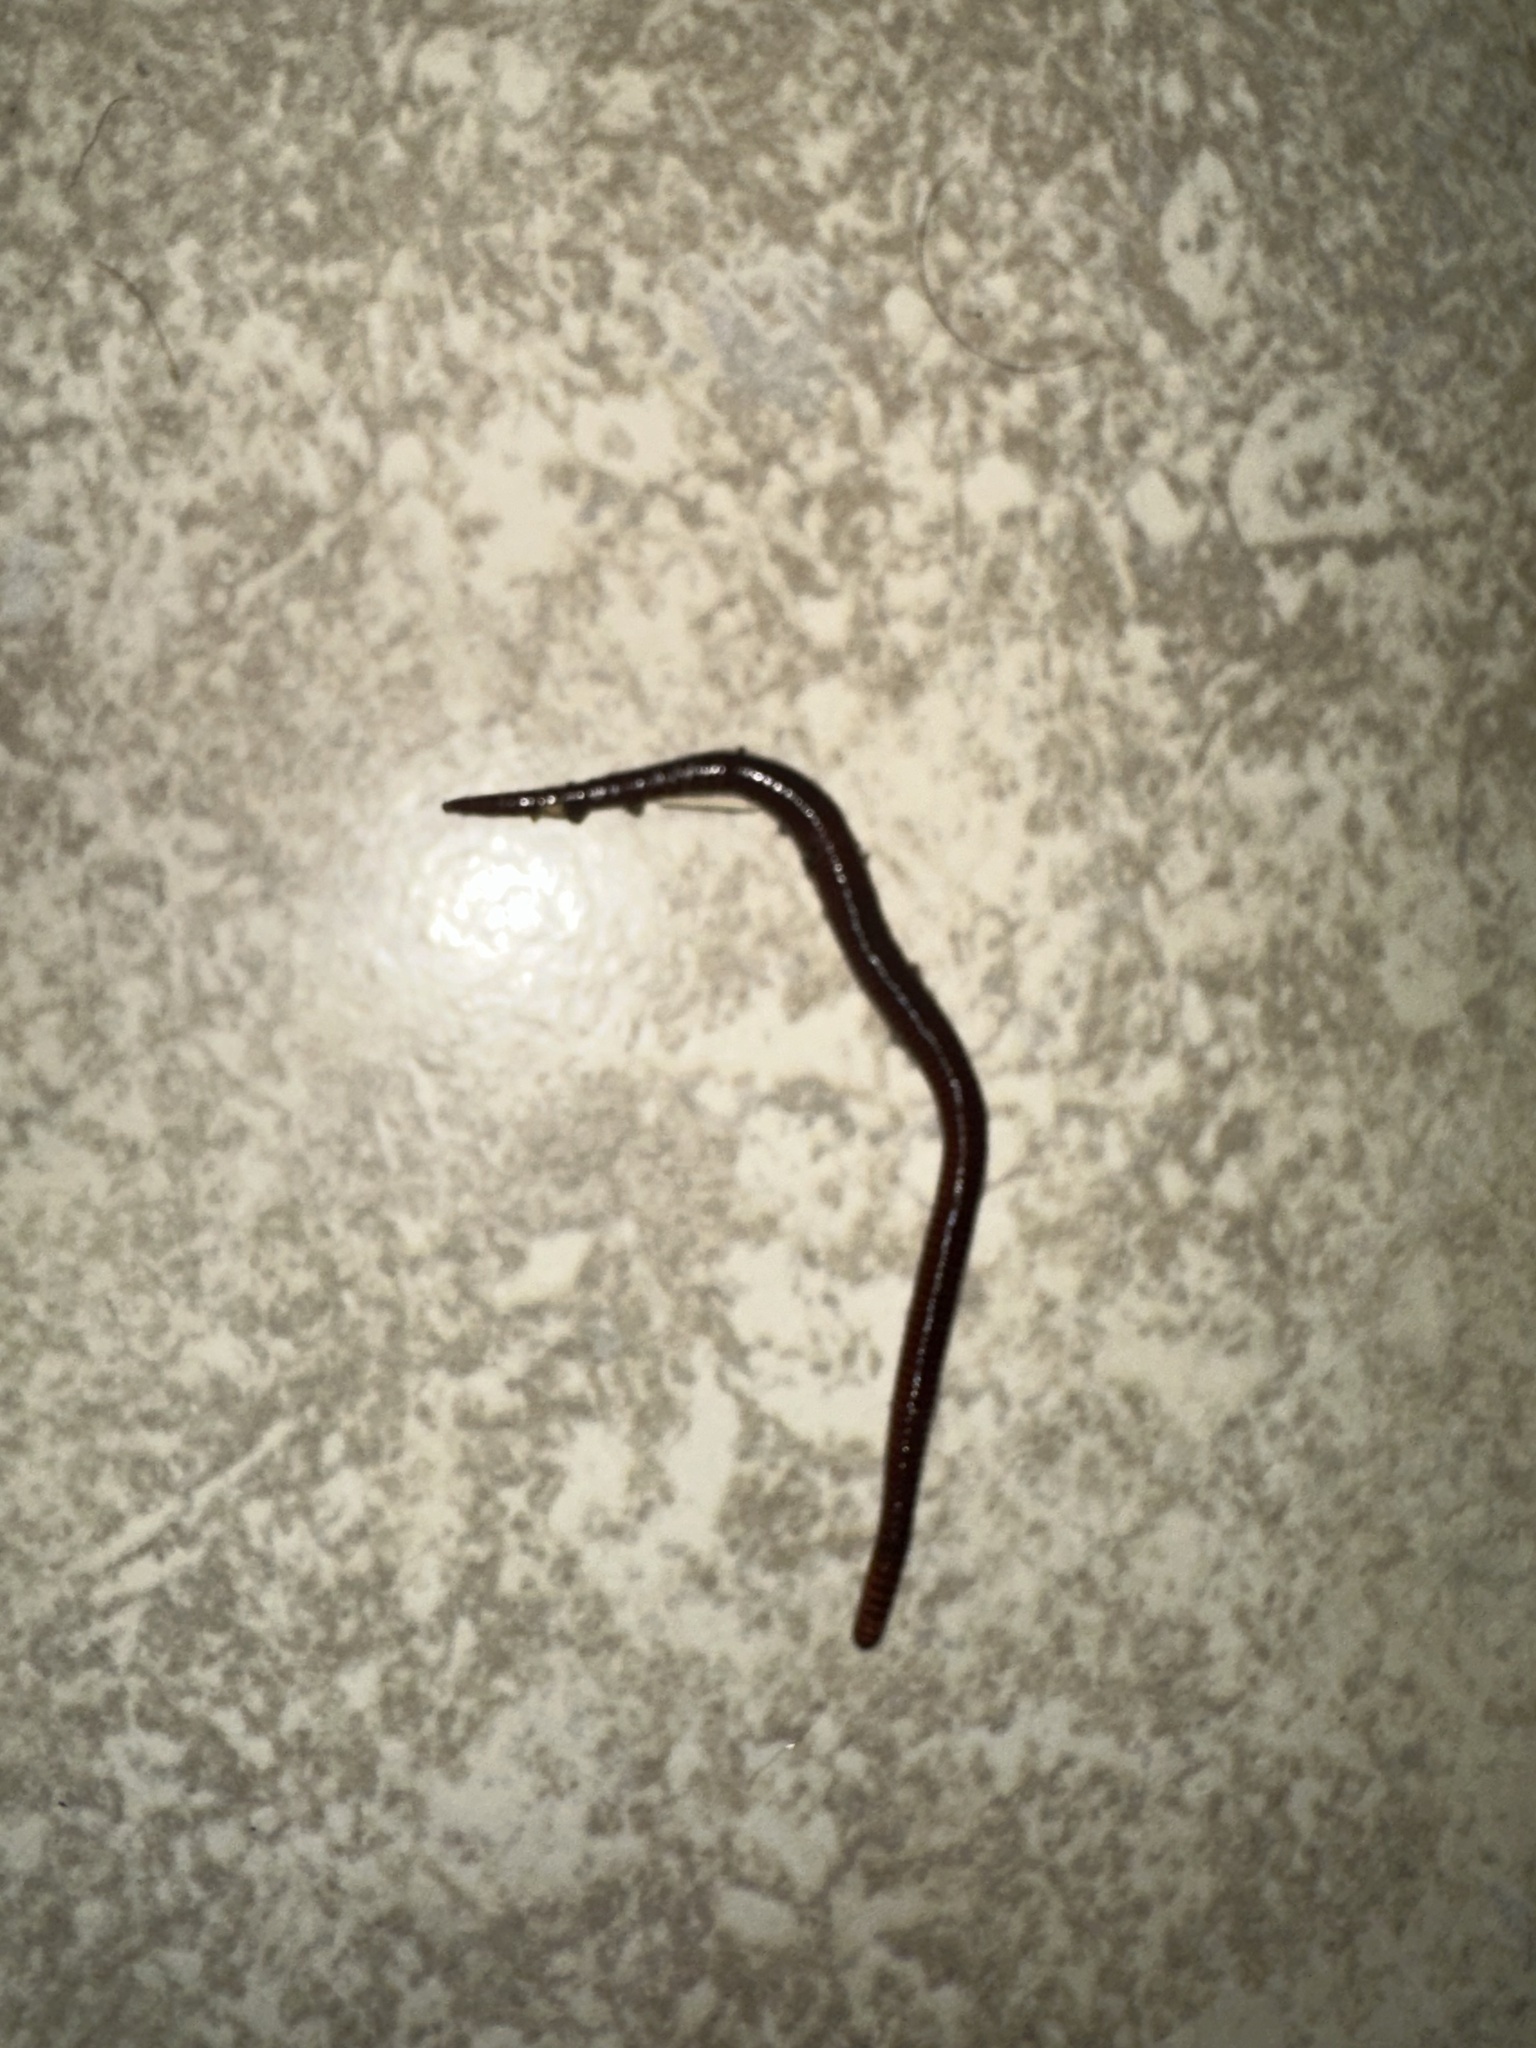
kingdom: Animalia
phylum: Annelida
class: Clitellata
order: Crassiclitellata
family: Lumbricidae
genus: Lumbricus
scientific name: Lumbricus terrestris
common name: Common earthworm
